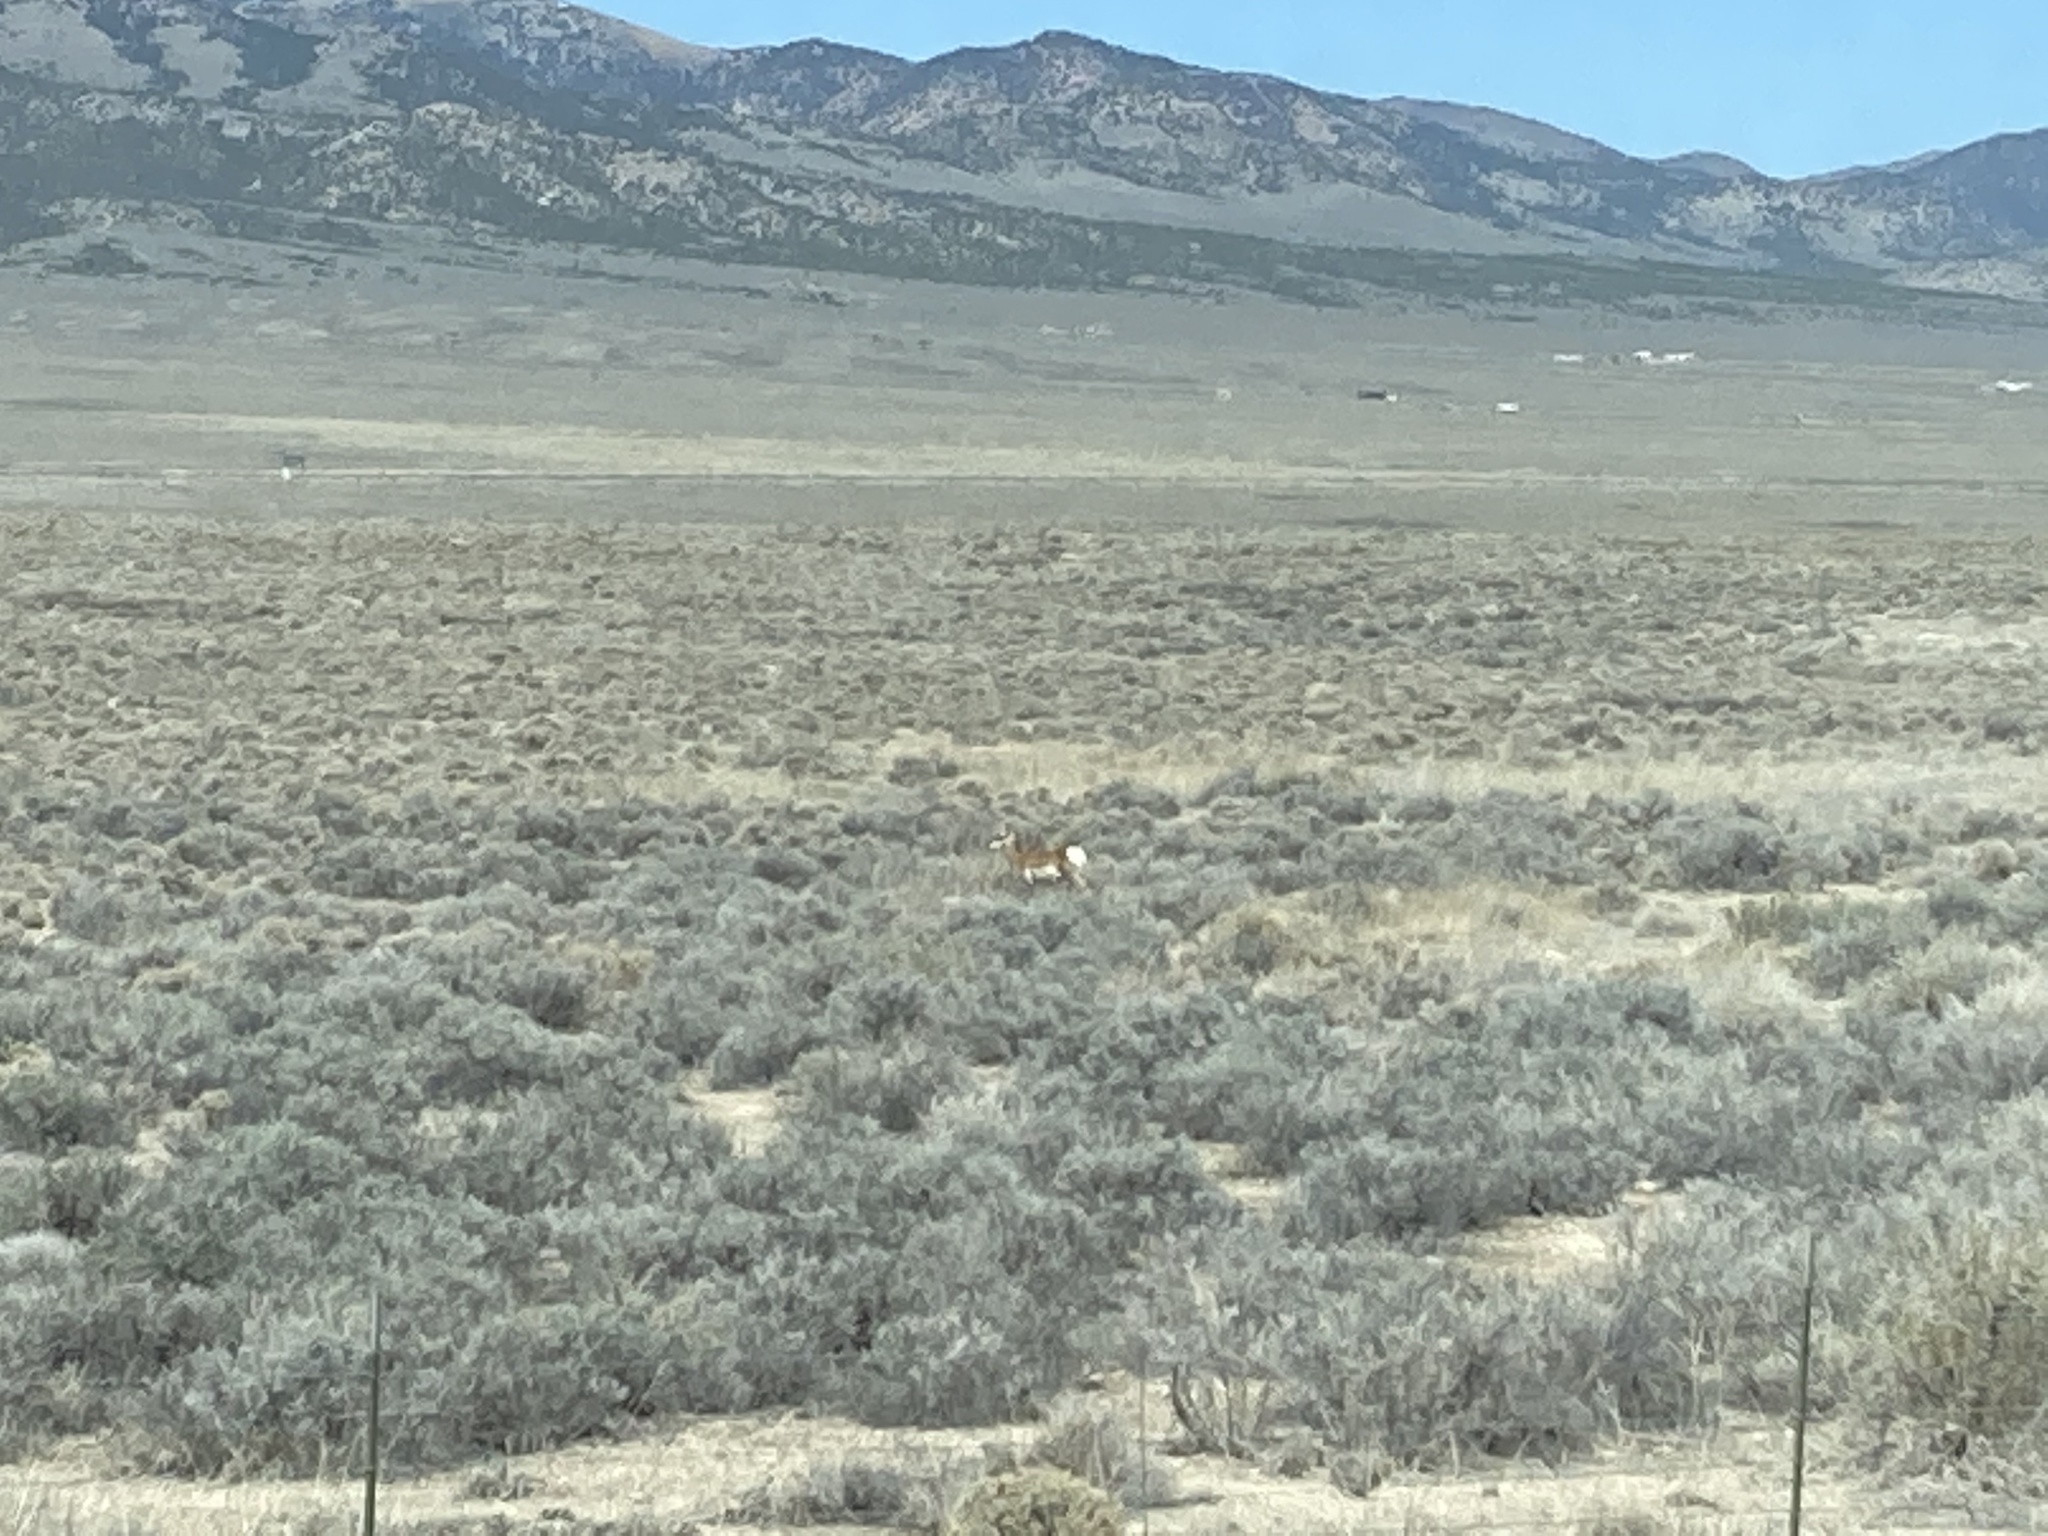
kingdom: Animalia
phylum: Chordata
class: Mammalia
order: Artiodactyla
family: Antilocapridae
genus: Antilocapra
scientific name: Antilocapra americana
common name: Pronghorn
